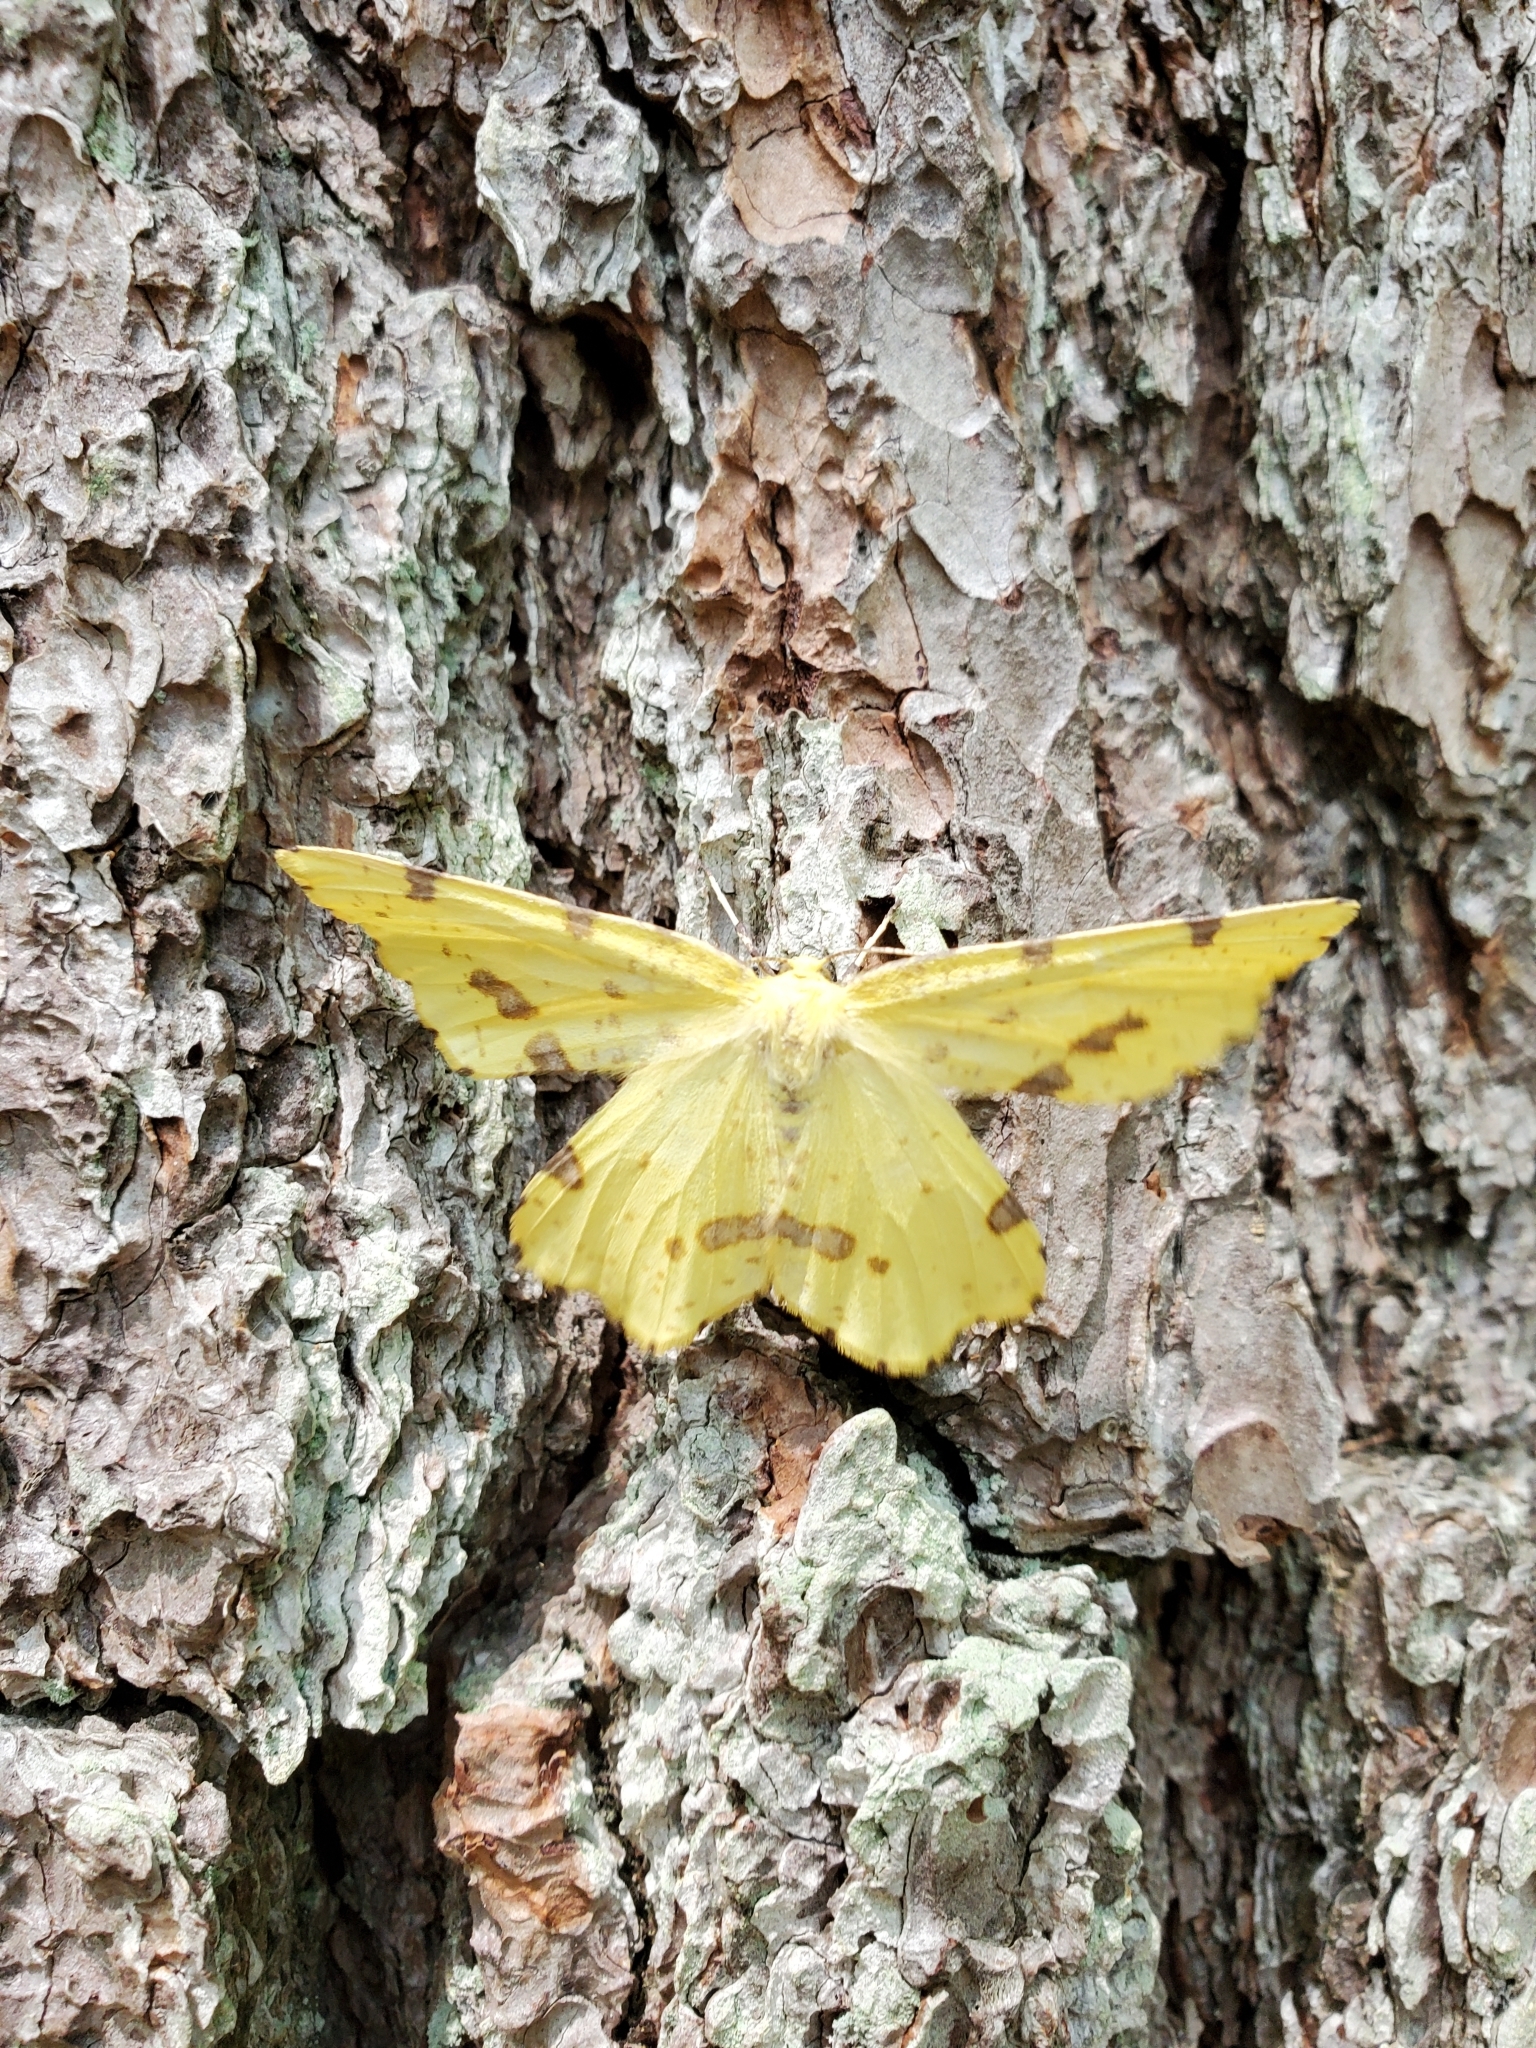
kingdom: Animalia
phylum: Arthropoda
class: Insecta
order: Lepidoptera
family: Geometridae
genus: Xanthotype
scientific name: Xanthotype
